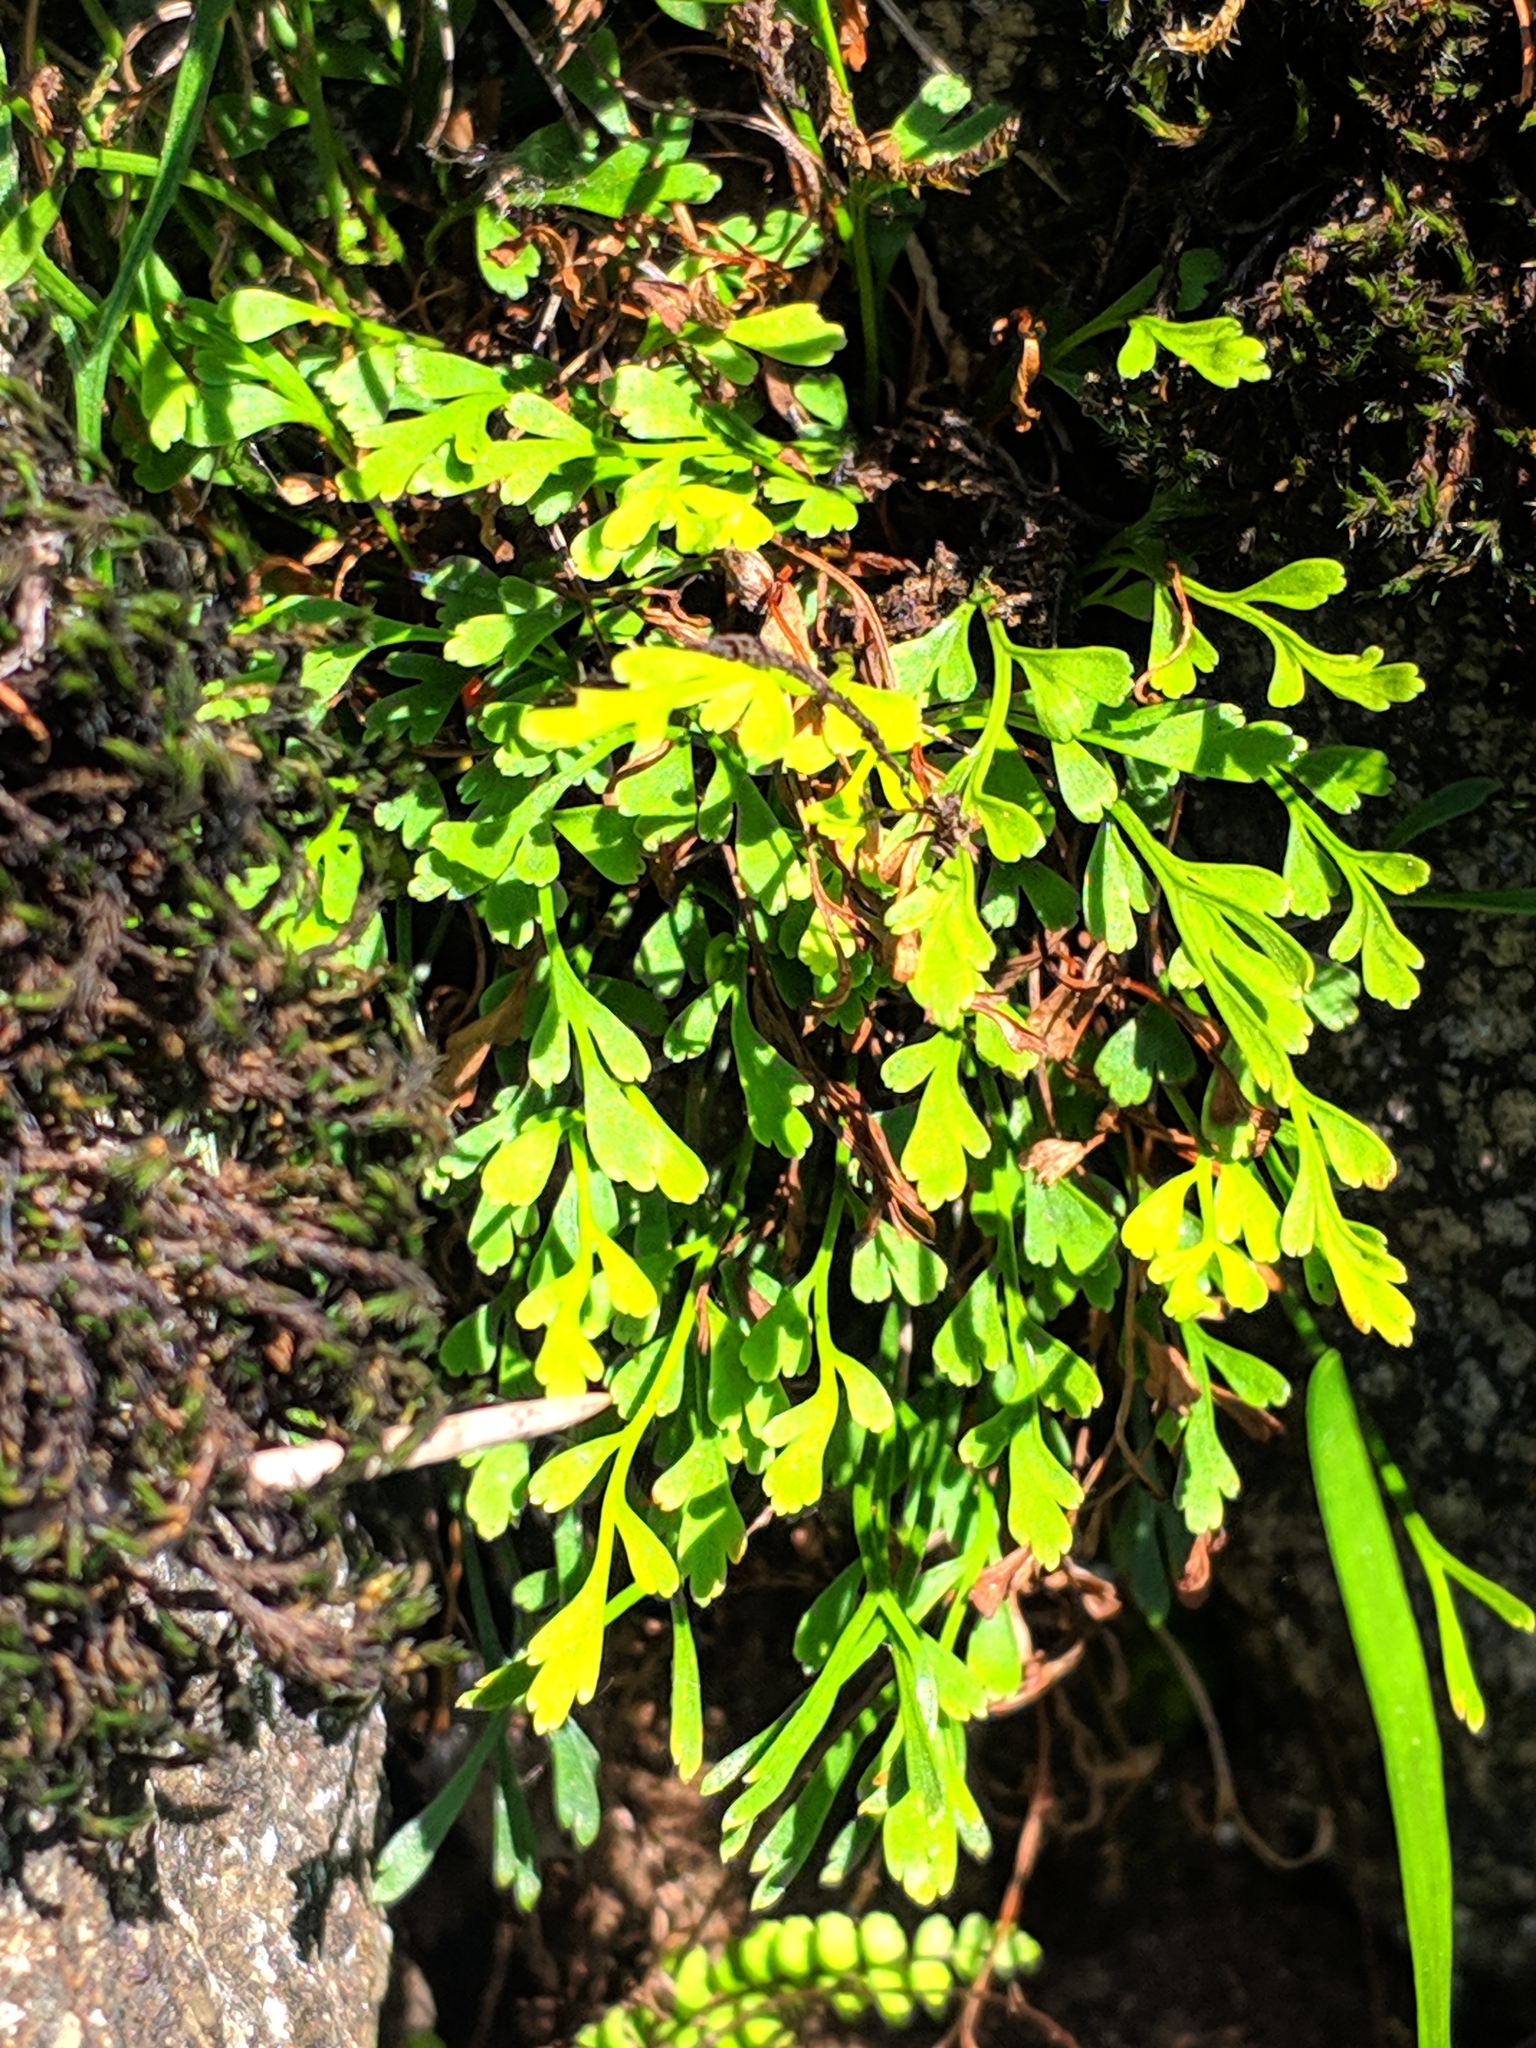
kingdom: Plantae
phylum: Tracheophyta
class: Polypodiopsida
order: Polypodiales
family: Aspleniaceae
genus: Asplenium
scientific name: Asplenium ruta-muraria
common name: Wall-rue
